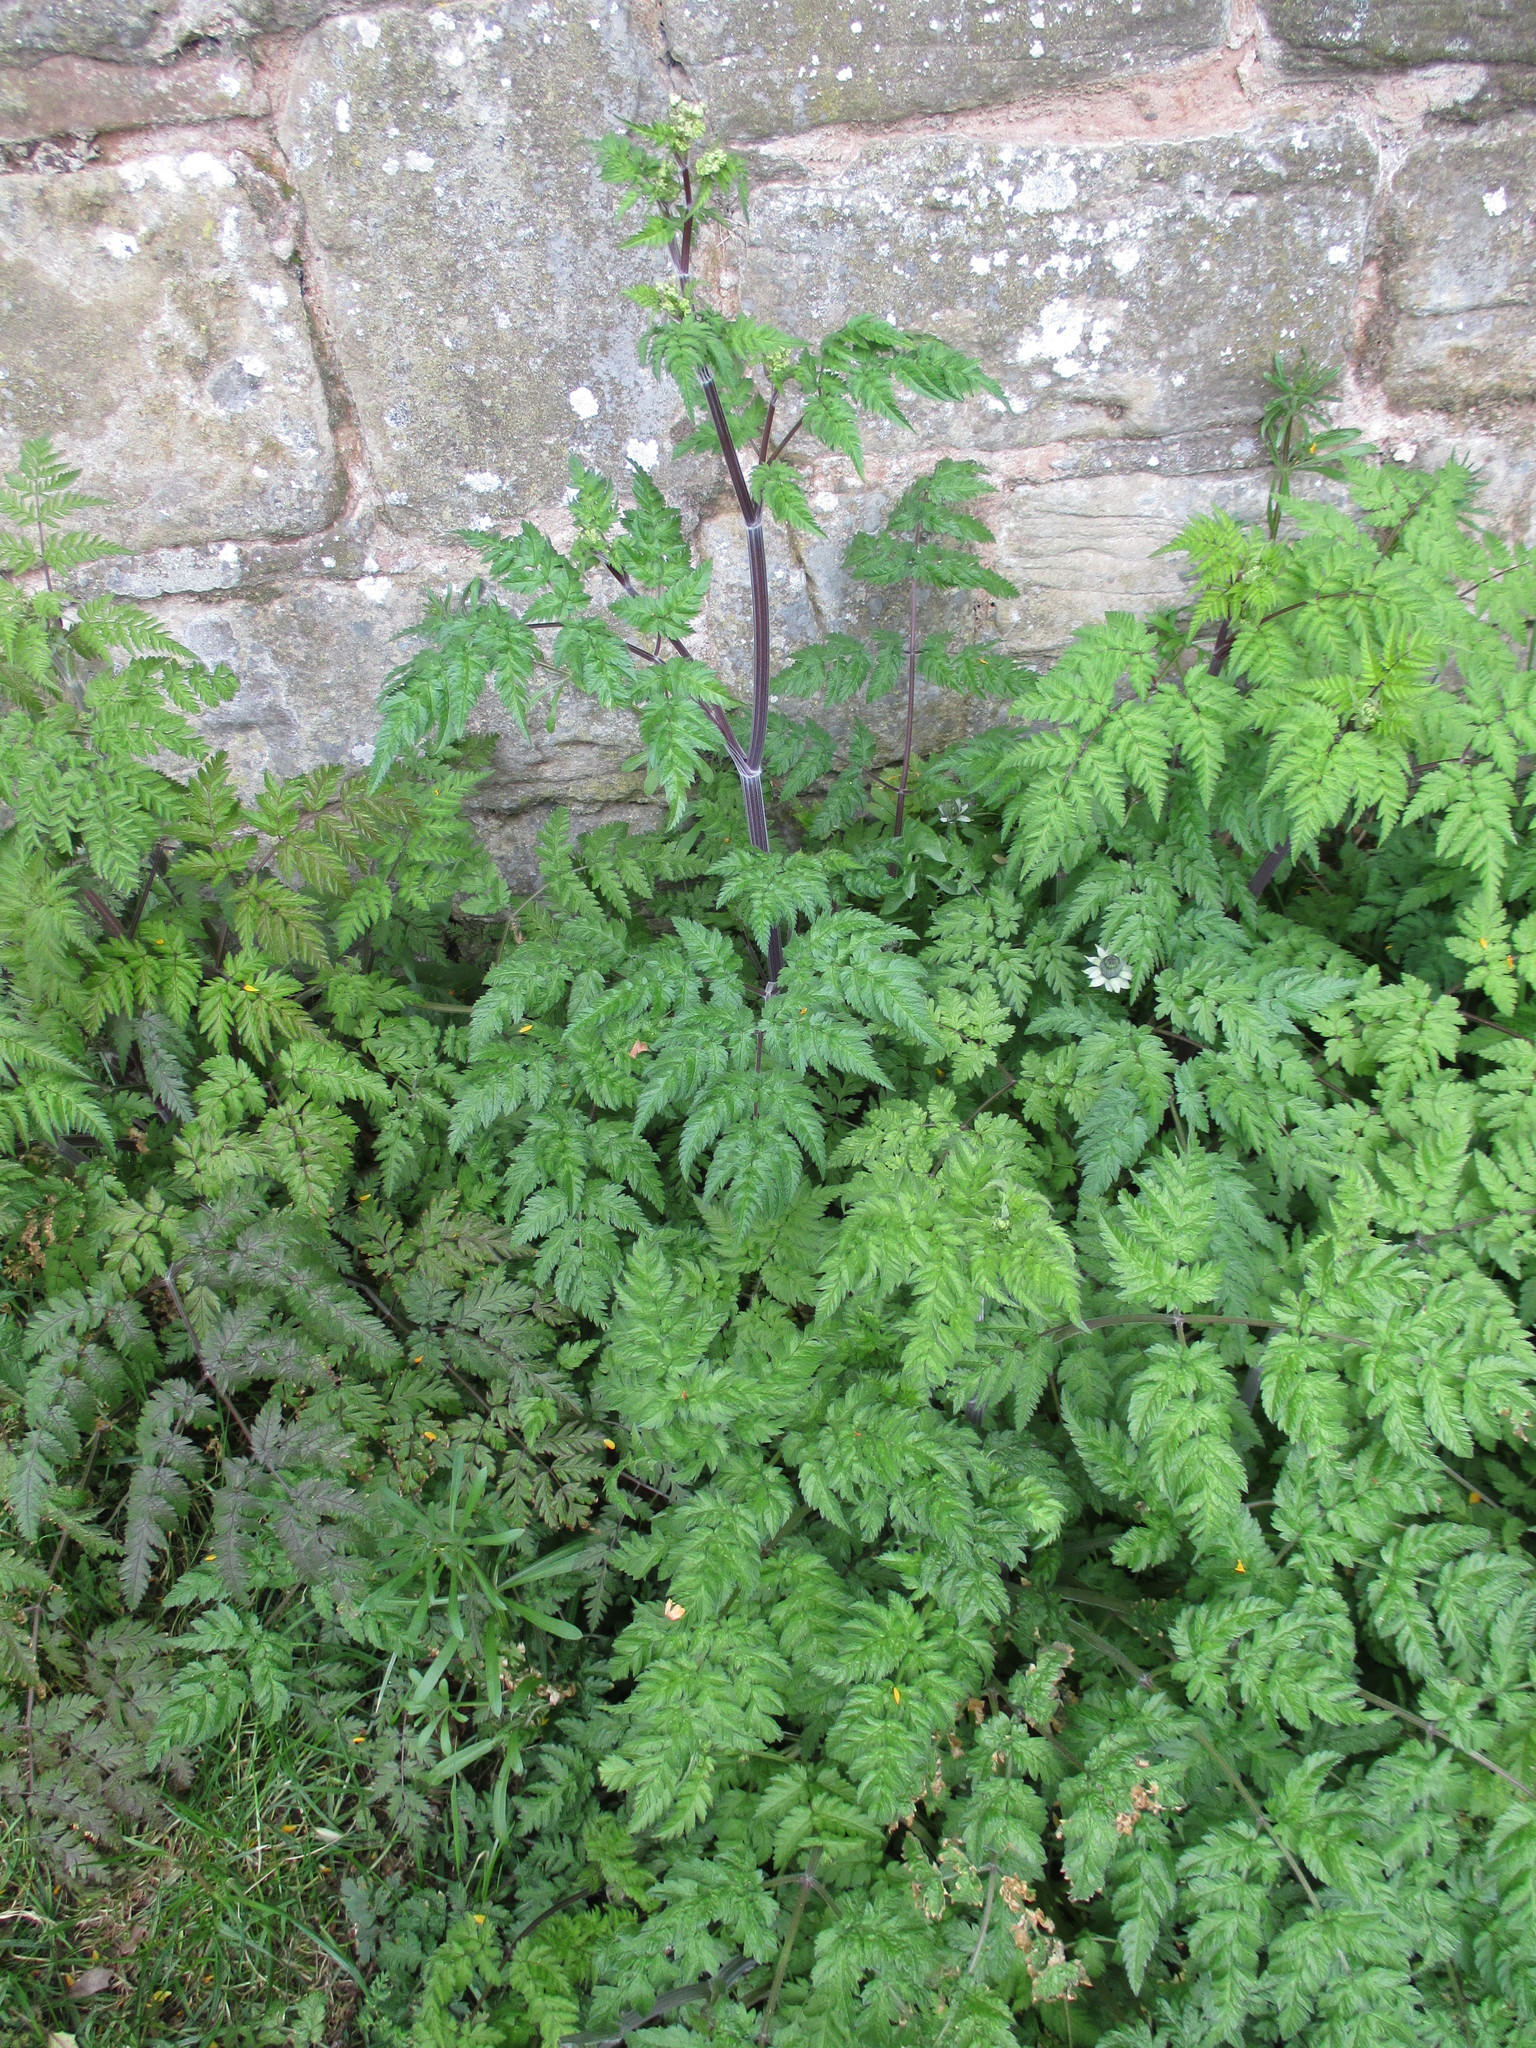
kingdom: Plantae
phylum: Tracheophyta
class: Magnoliopsida
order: Apiales
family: Apiaceae
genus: Anthriscus
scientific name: Anthriscus sylvestris
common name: Cow parsley
